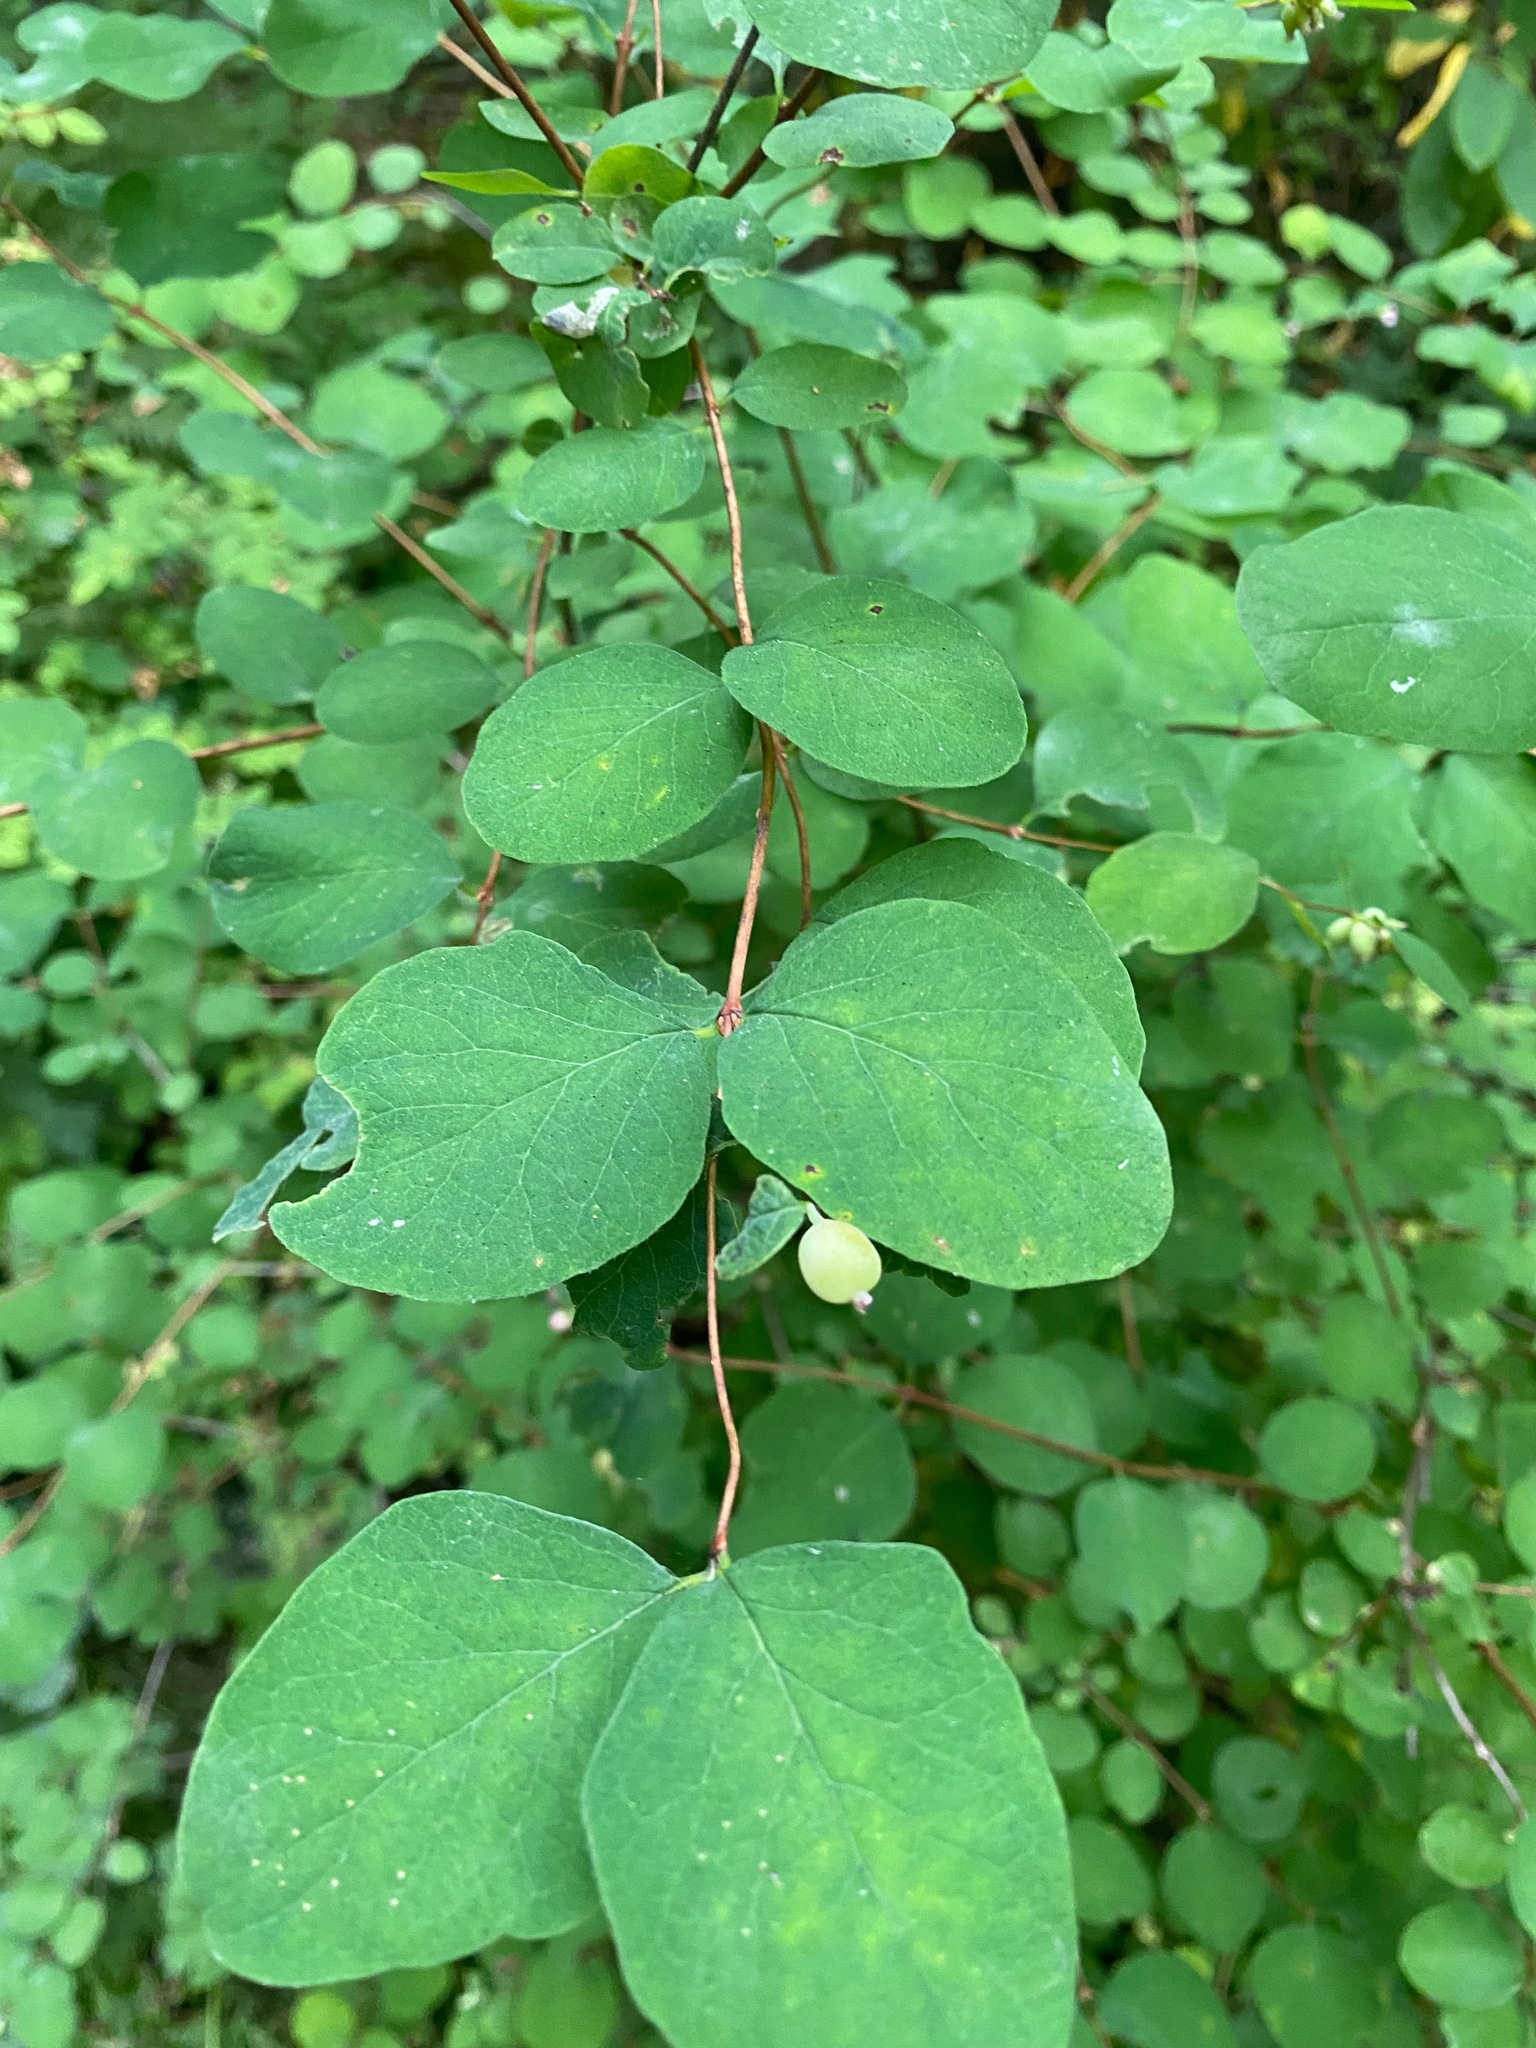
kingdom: Plantae
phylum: Tracheophyta
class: Magnoliopsida
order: Dipsacales
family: Caprifoliaceae
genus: Symphoricarpos
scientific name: Symphoricarpos albus
